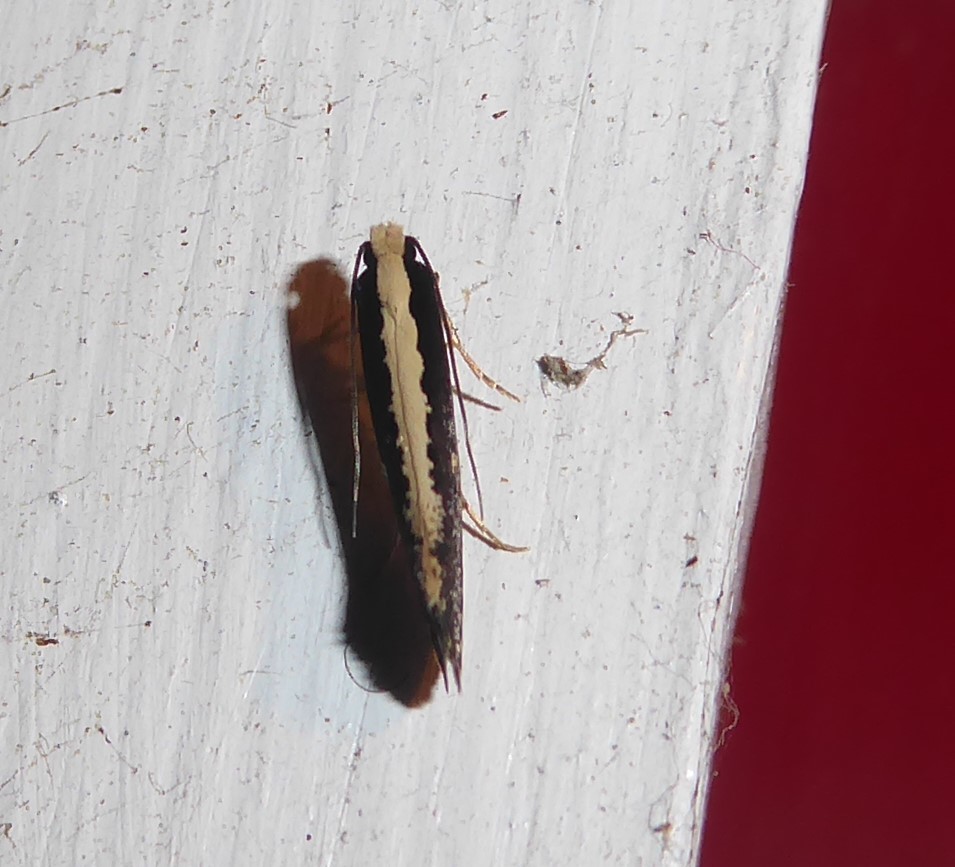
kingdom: Animalia
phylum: Arthropoda
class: Insecta
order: Lepidoptera
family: Tineidae
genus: Monopis
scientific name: Monopis ethelella
